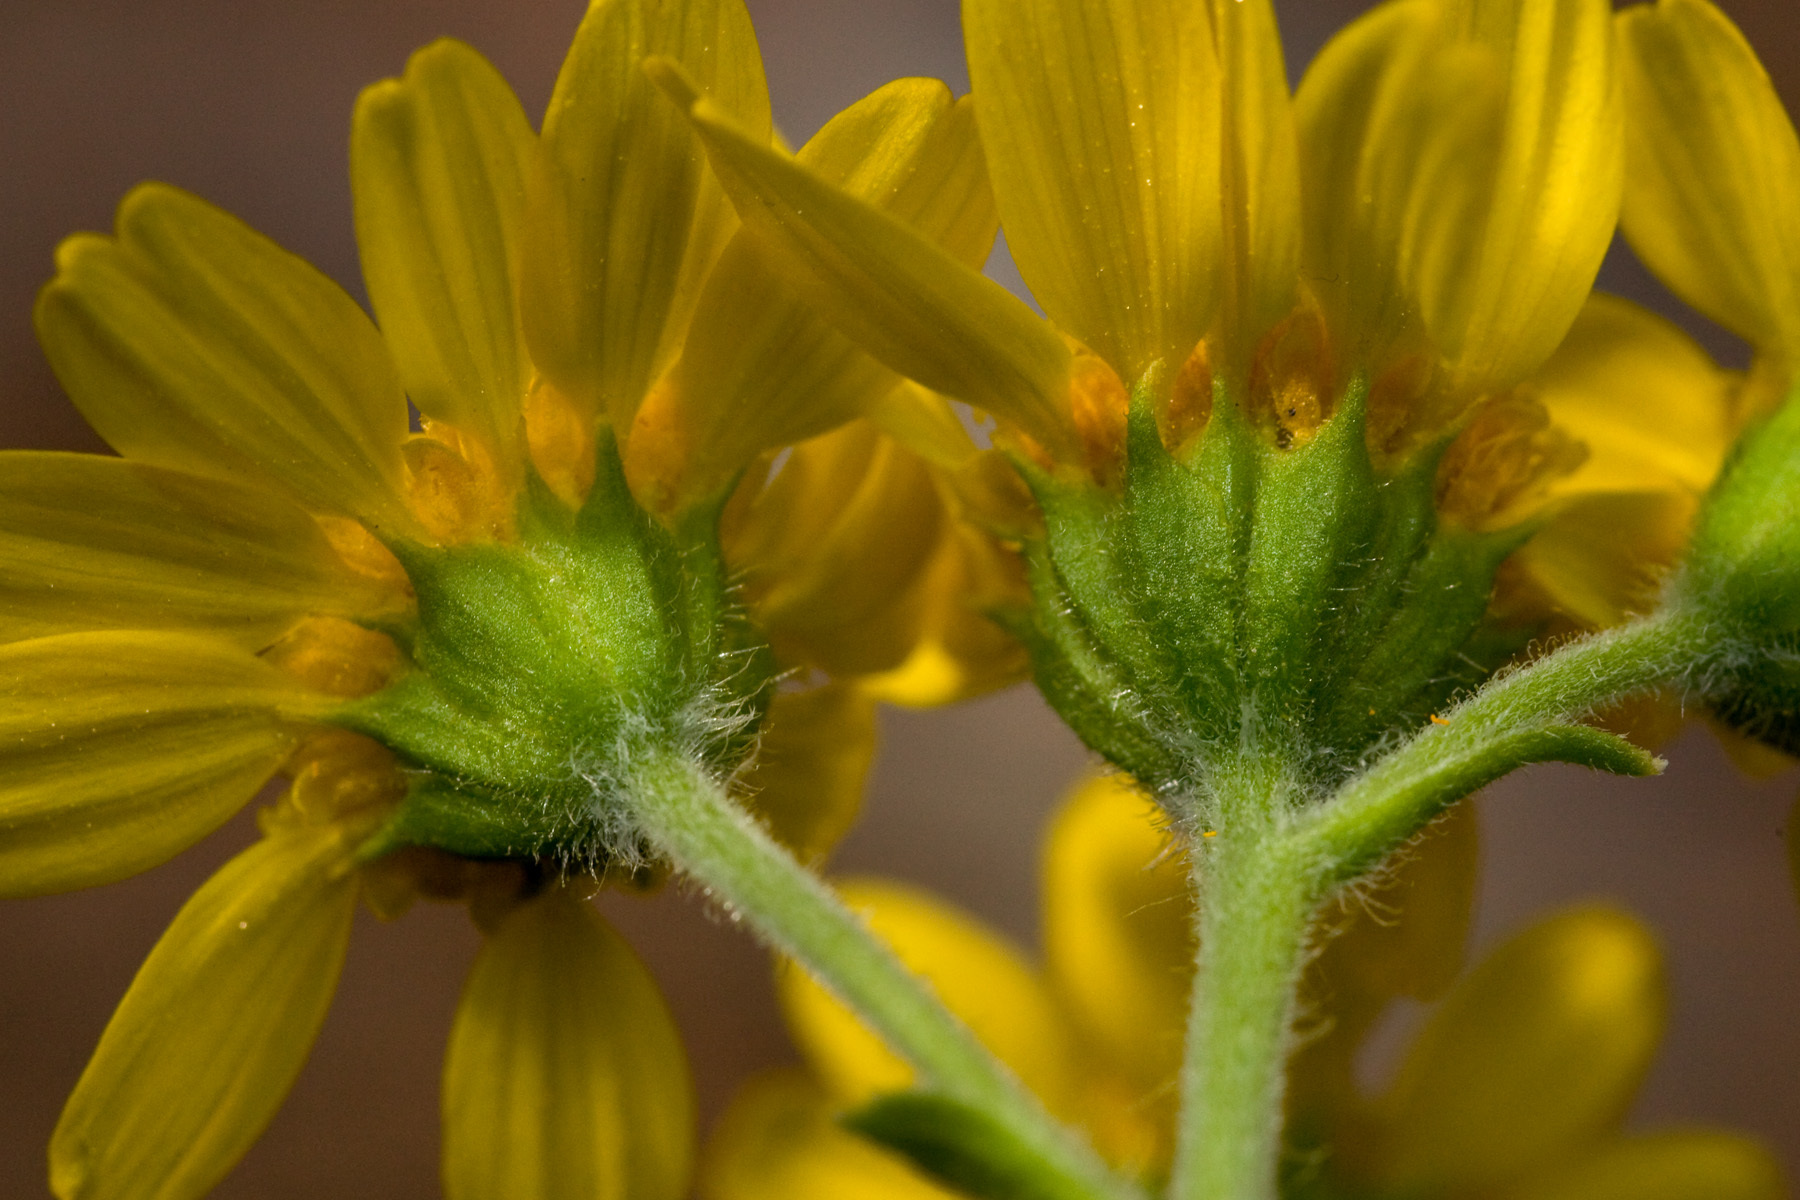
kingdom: Plantae
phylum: Tracheophyta
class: Magnoliopsida
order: Asterales
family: Asteraceae
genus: Hymenothrix
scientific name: Hymenothrix dissecta
